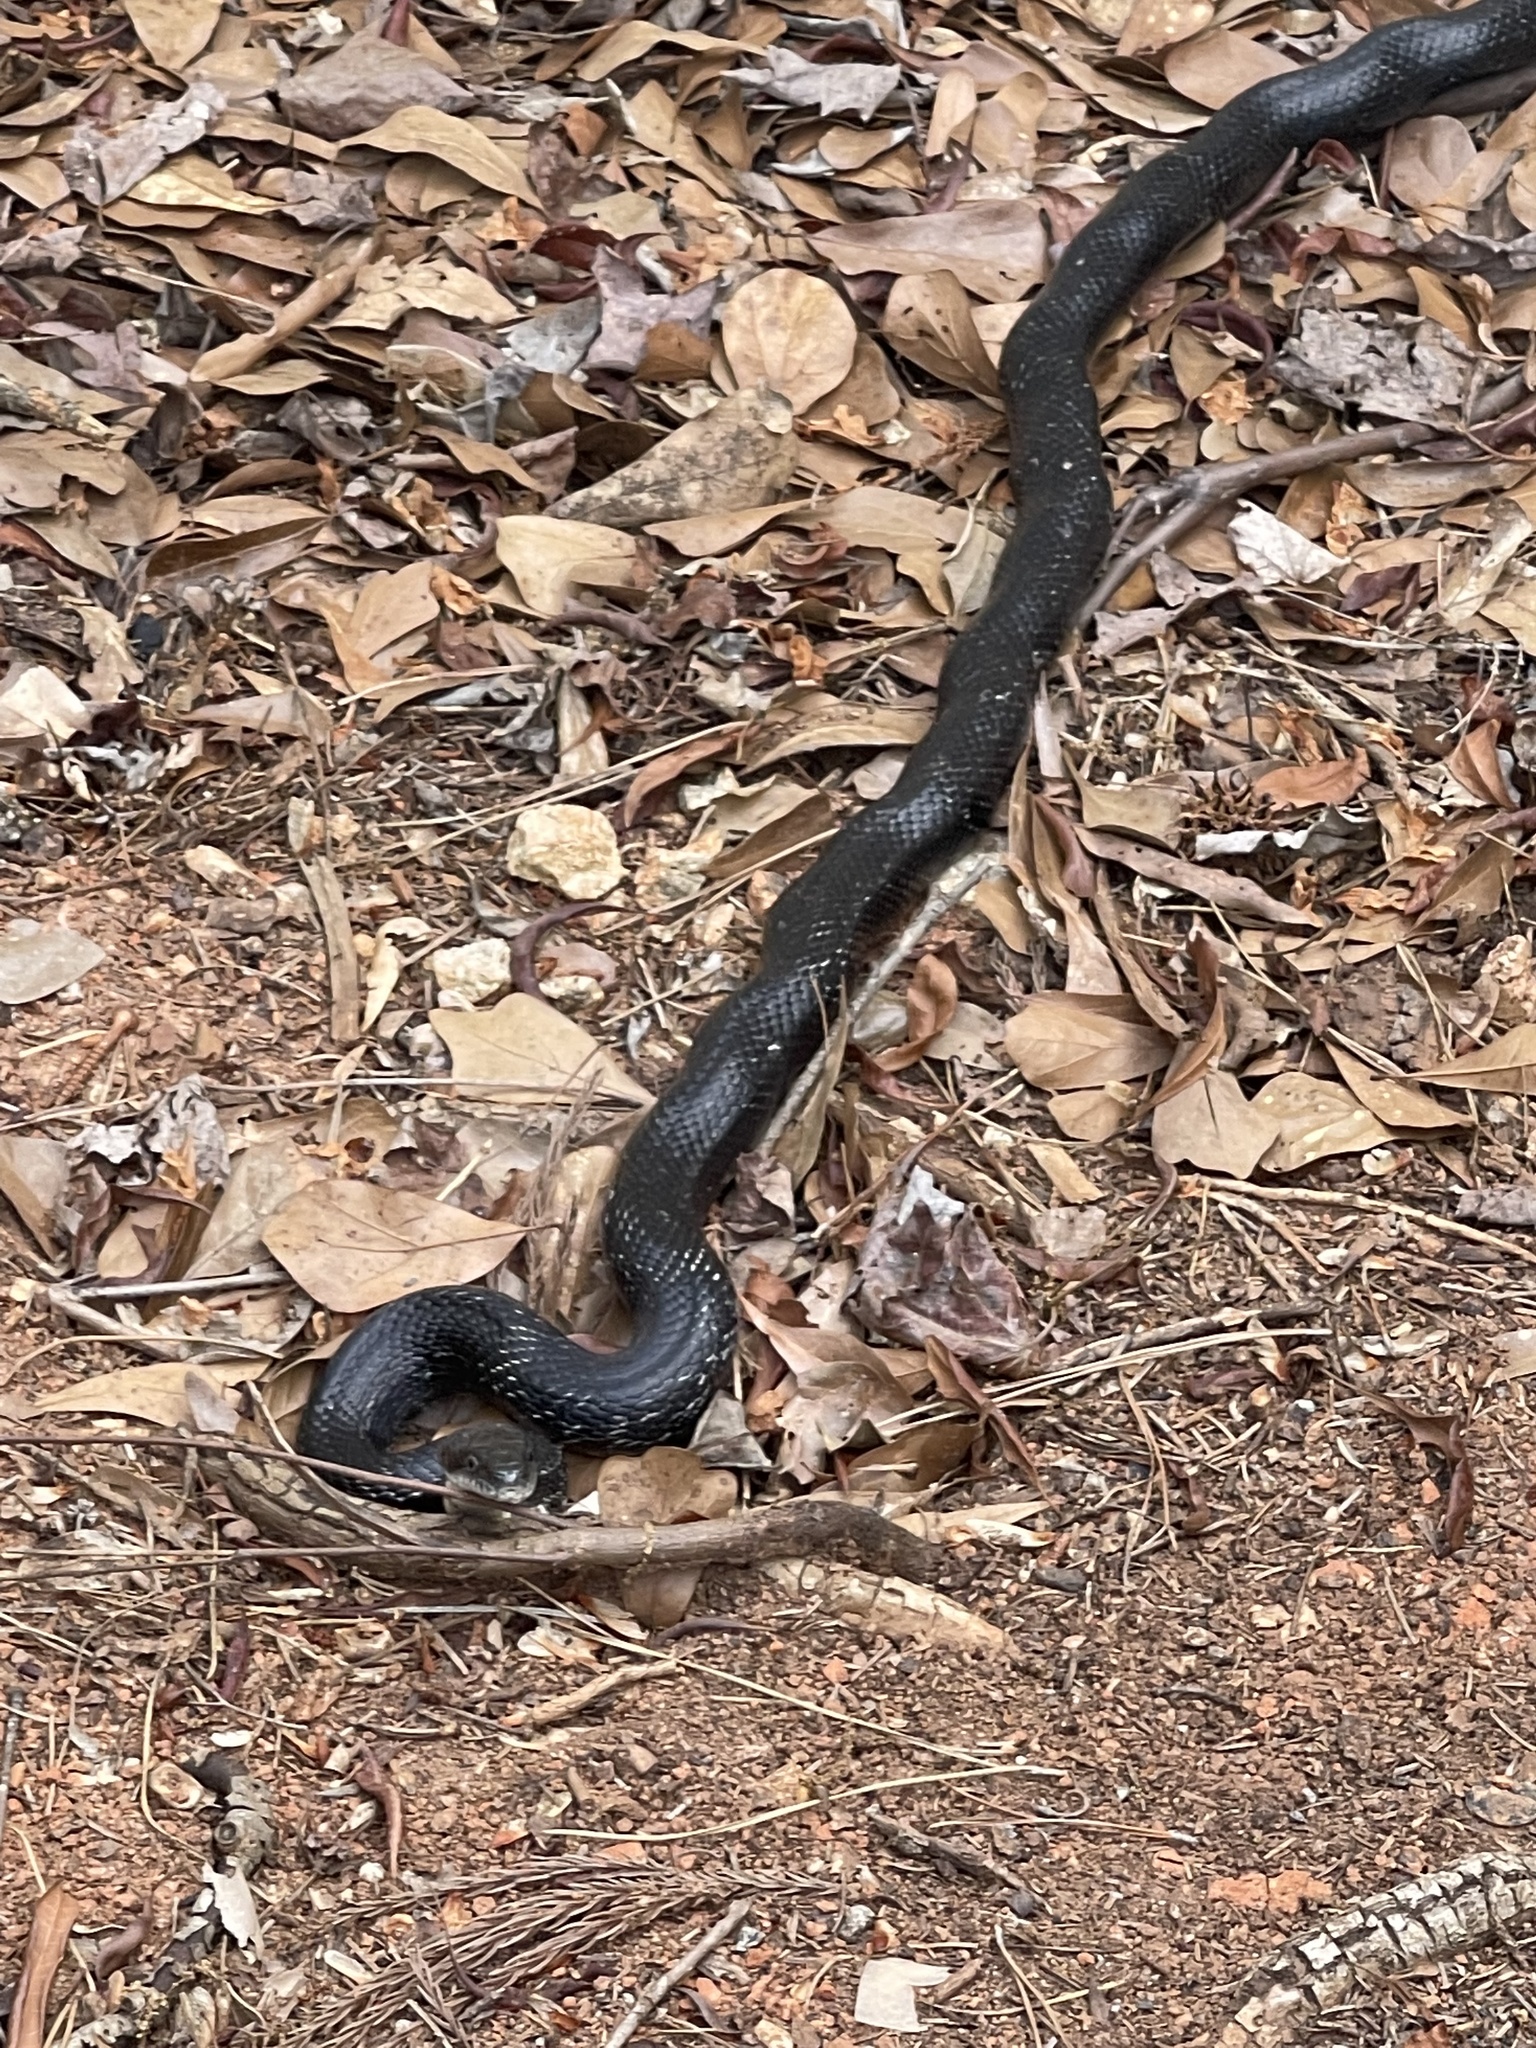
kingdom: Animalia
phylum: Chordata
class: Squamata
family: Colubridae
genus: Pantherophis
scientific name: Pantherophis alleghaniensis
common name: Eastern rat snake
